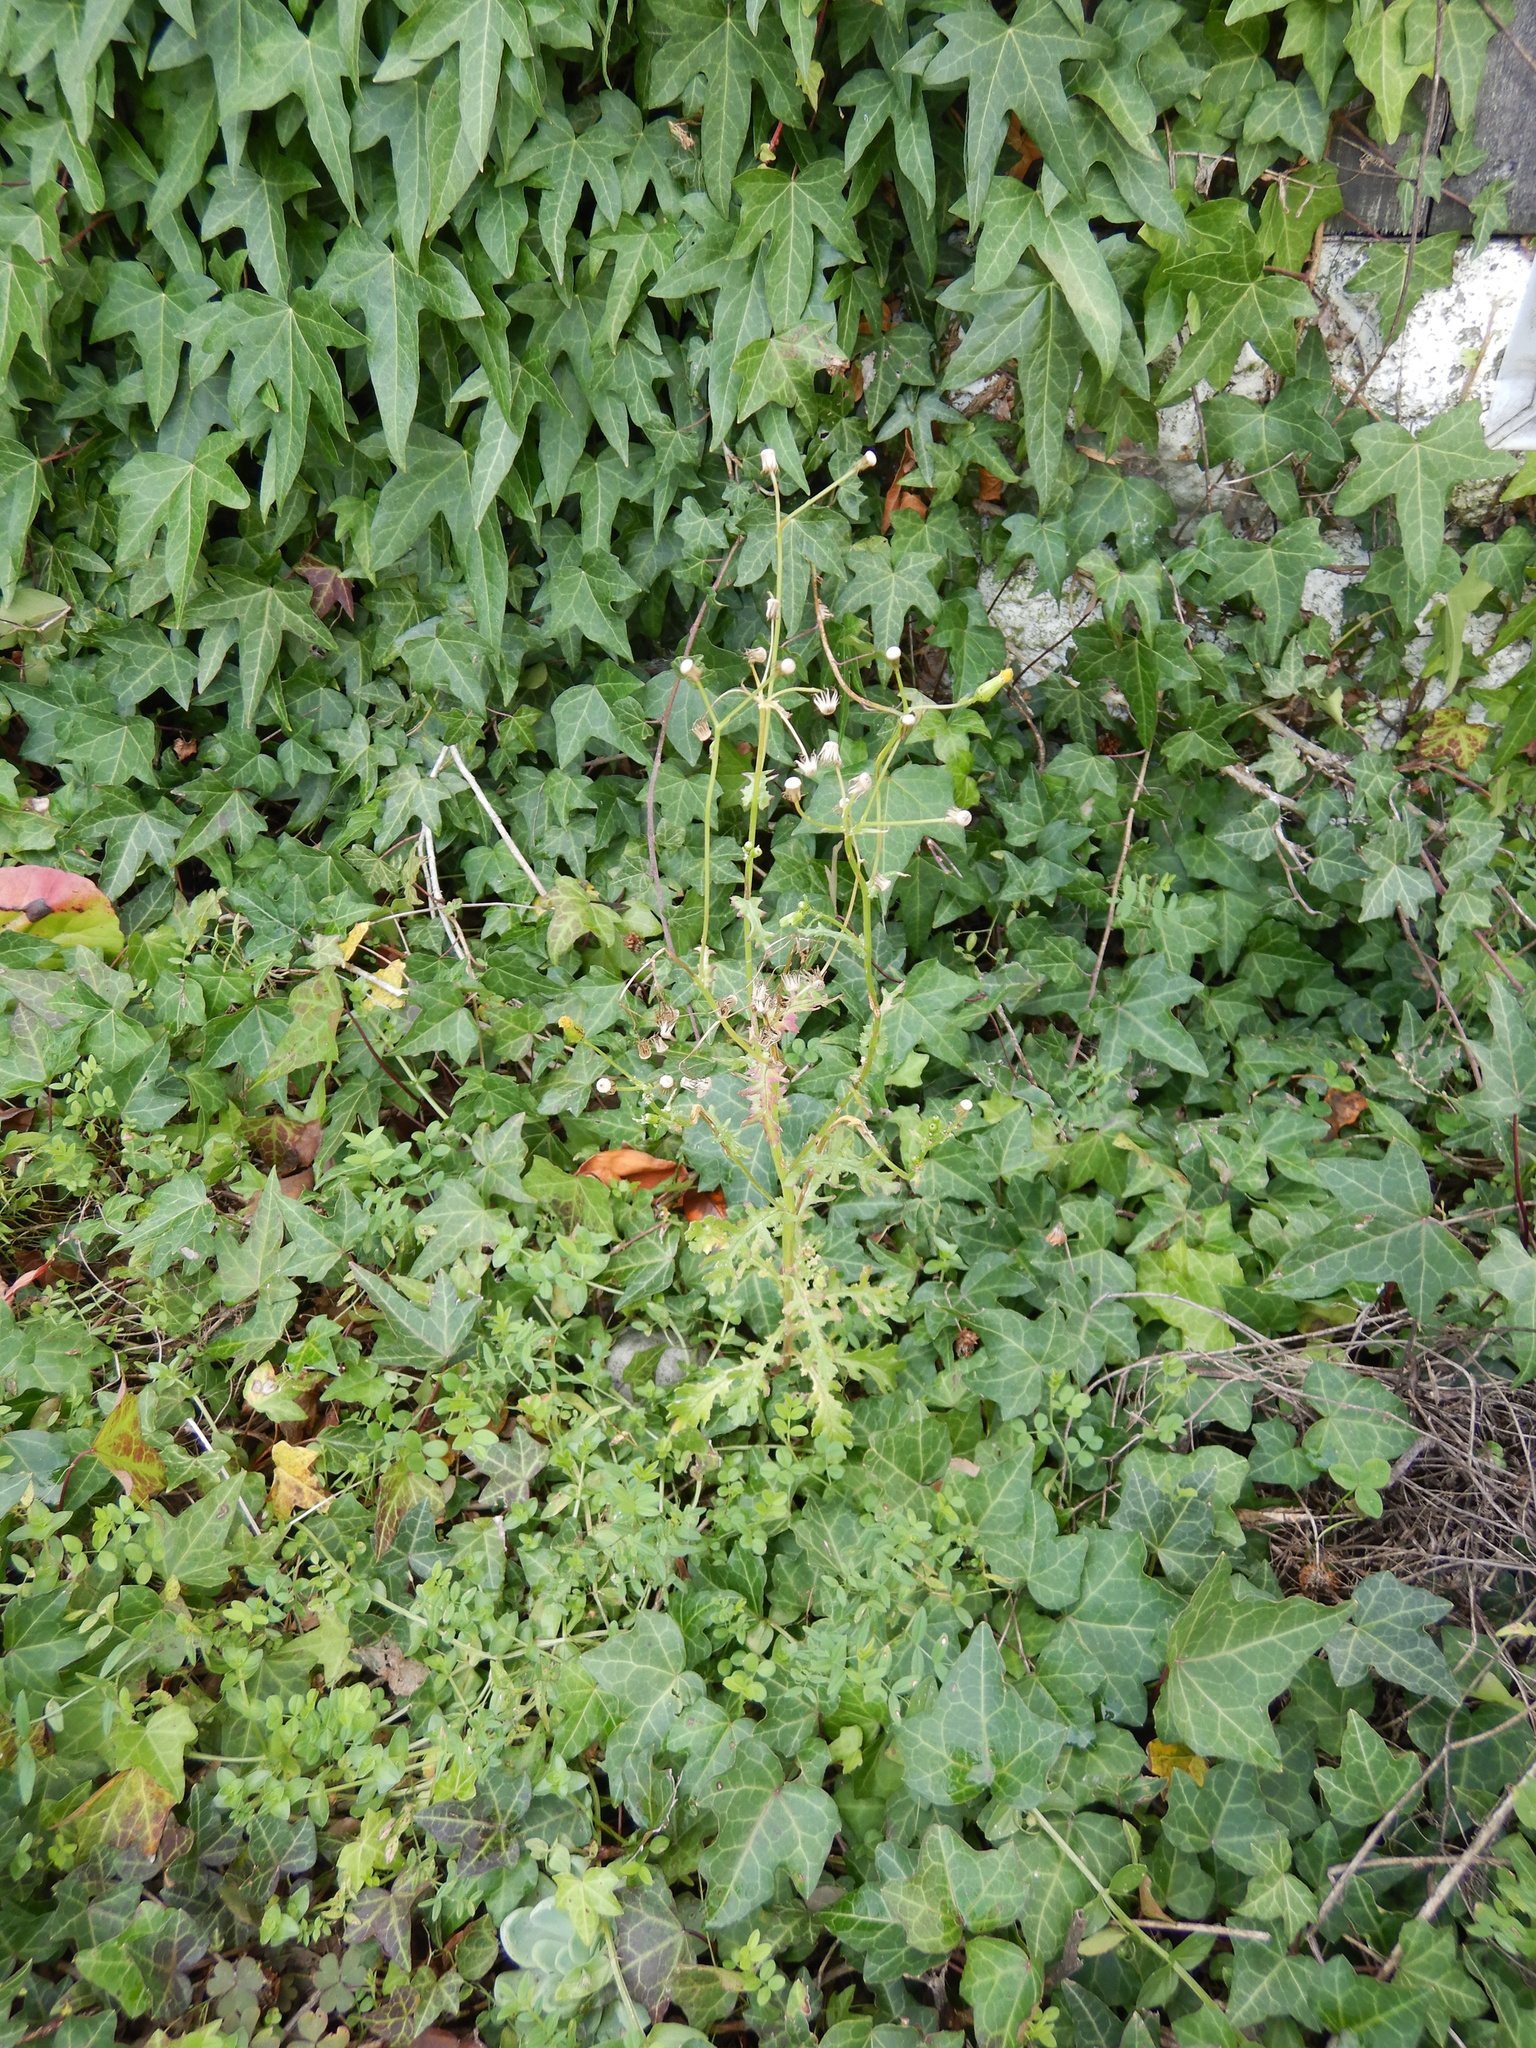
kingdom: Plantae
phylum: Tracheophyta
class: Magnoliopsida
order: Asterales
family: Asteraceae
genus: Senecio
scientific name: Senecio vulgaris
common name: Old-man-in-the-spring
